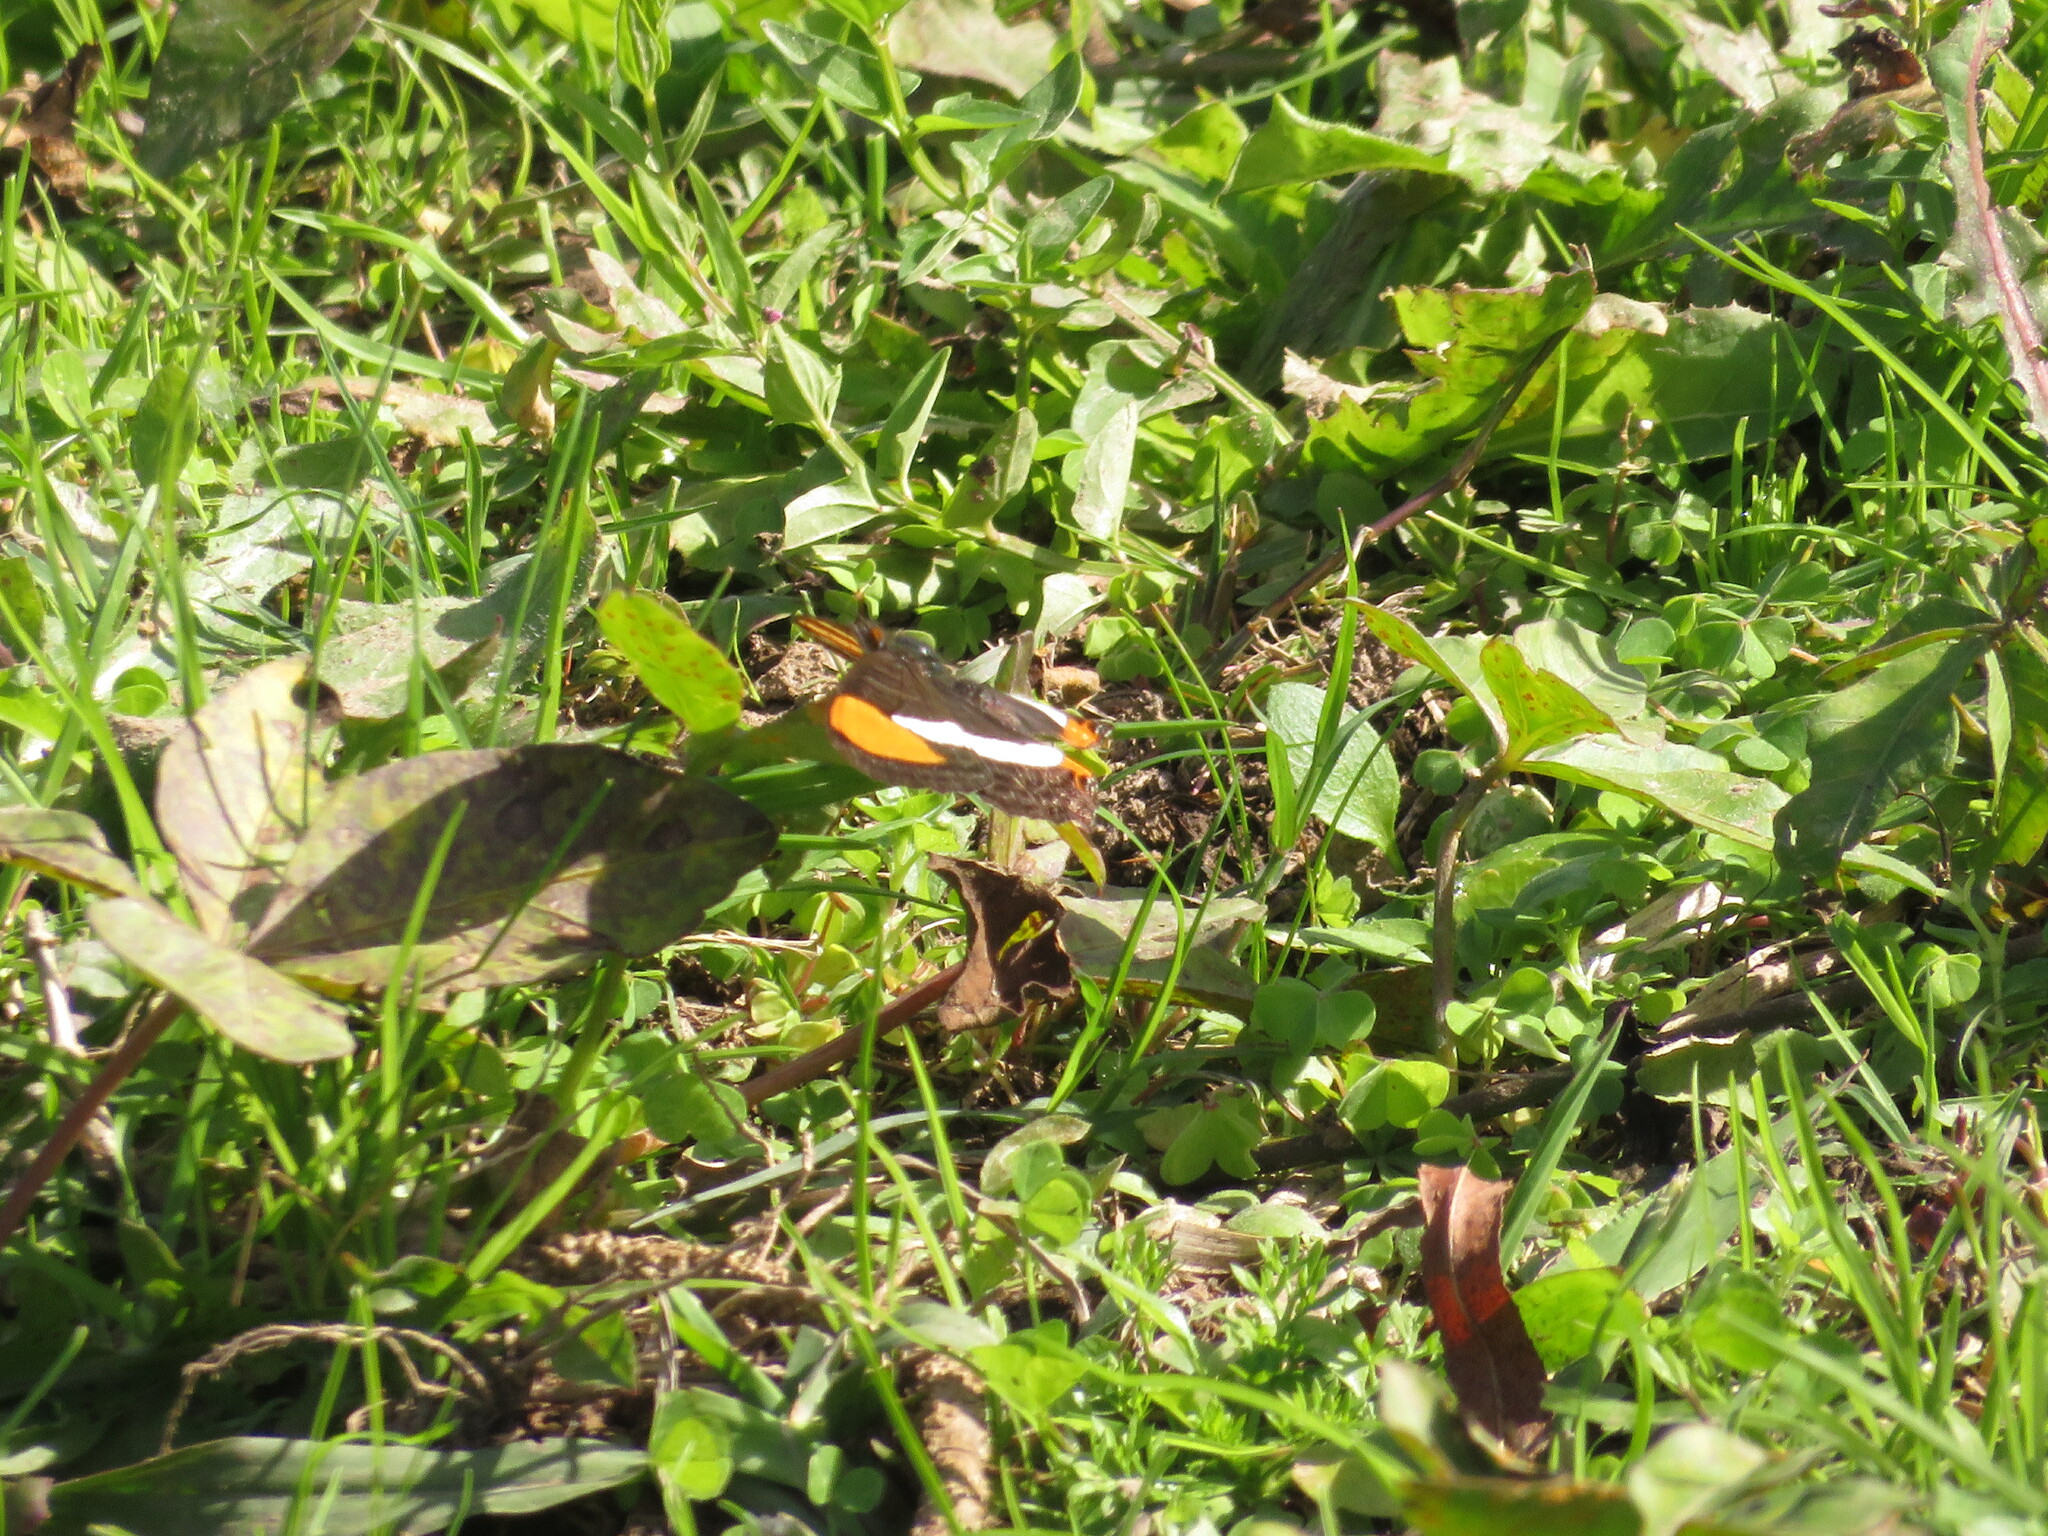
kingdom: Animalia
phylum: Arthropoda
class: Insecta
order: Lepidoptera
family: Nymphalidae
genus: Limenitis
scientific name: Limenitis syma
